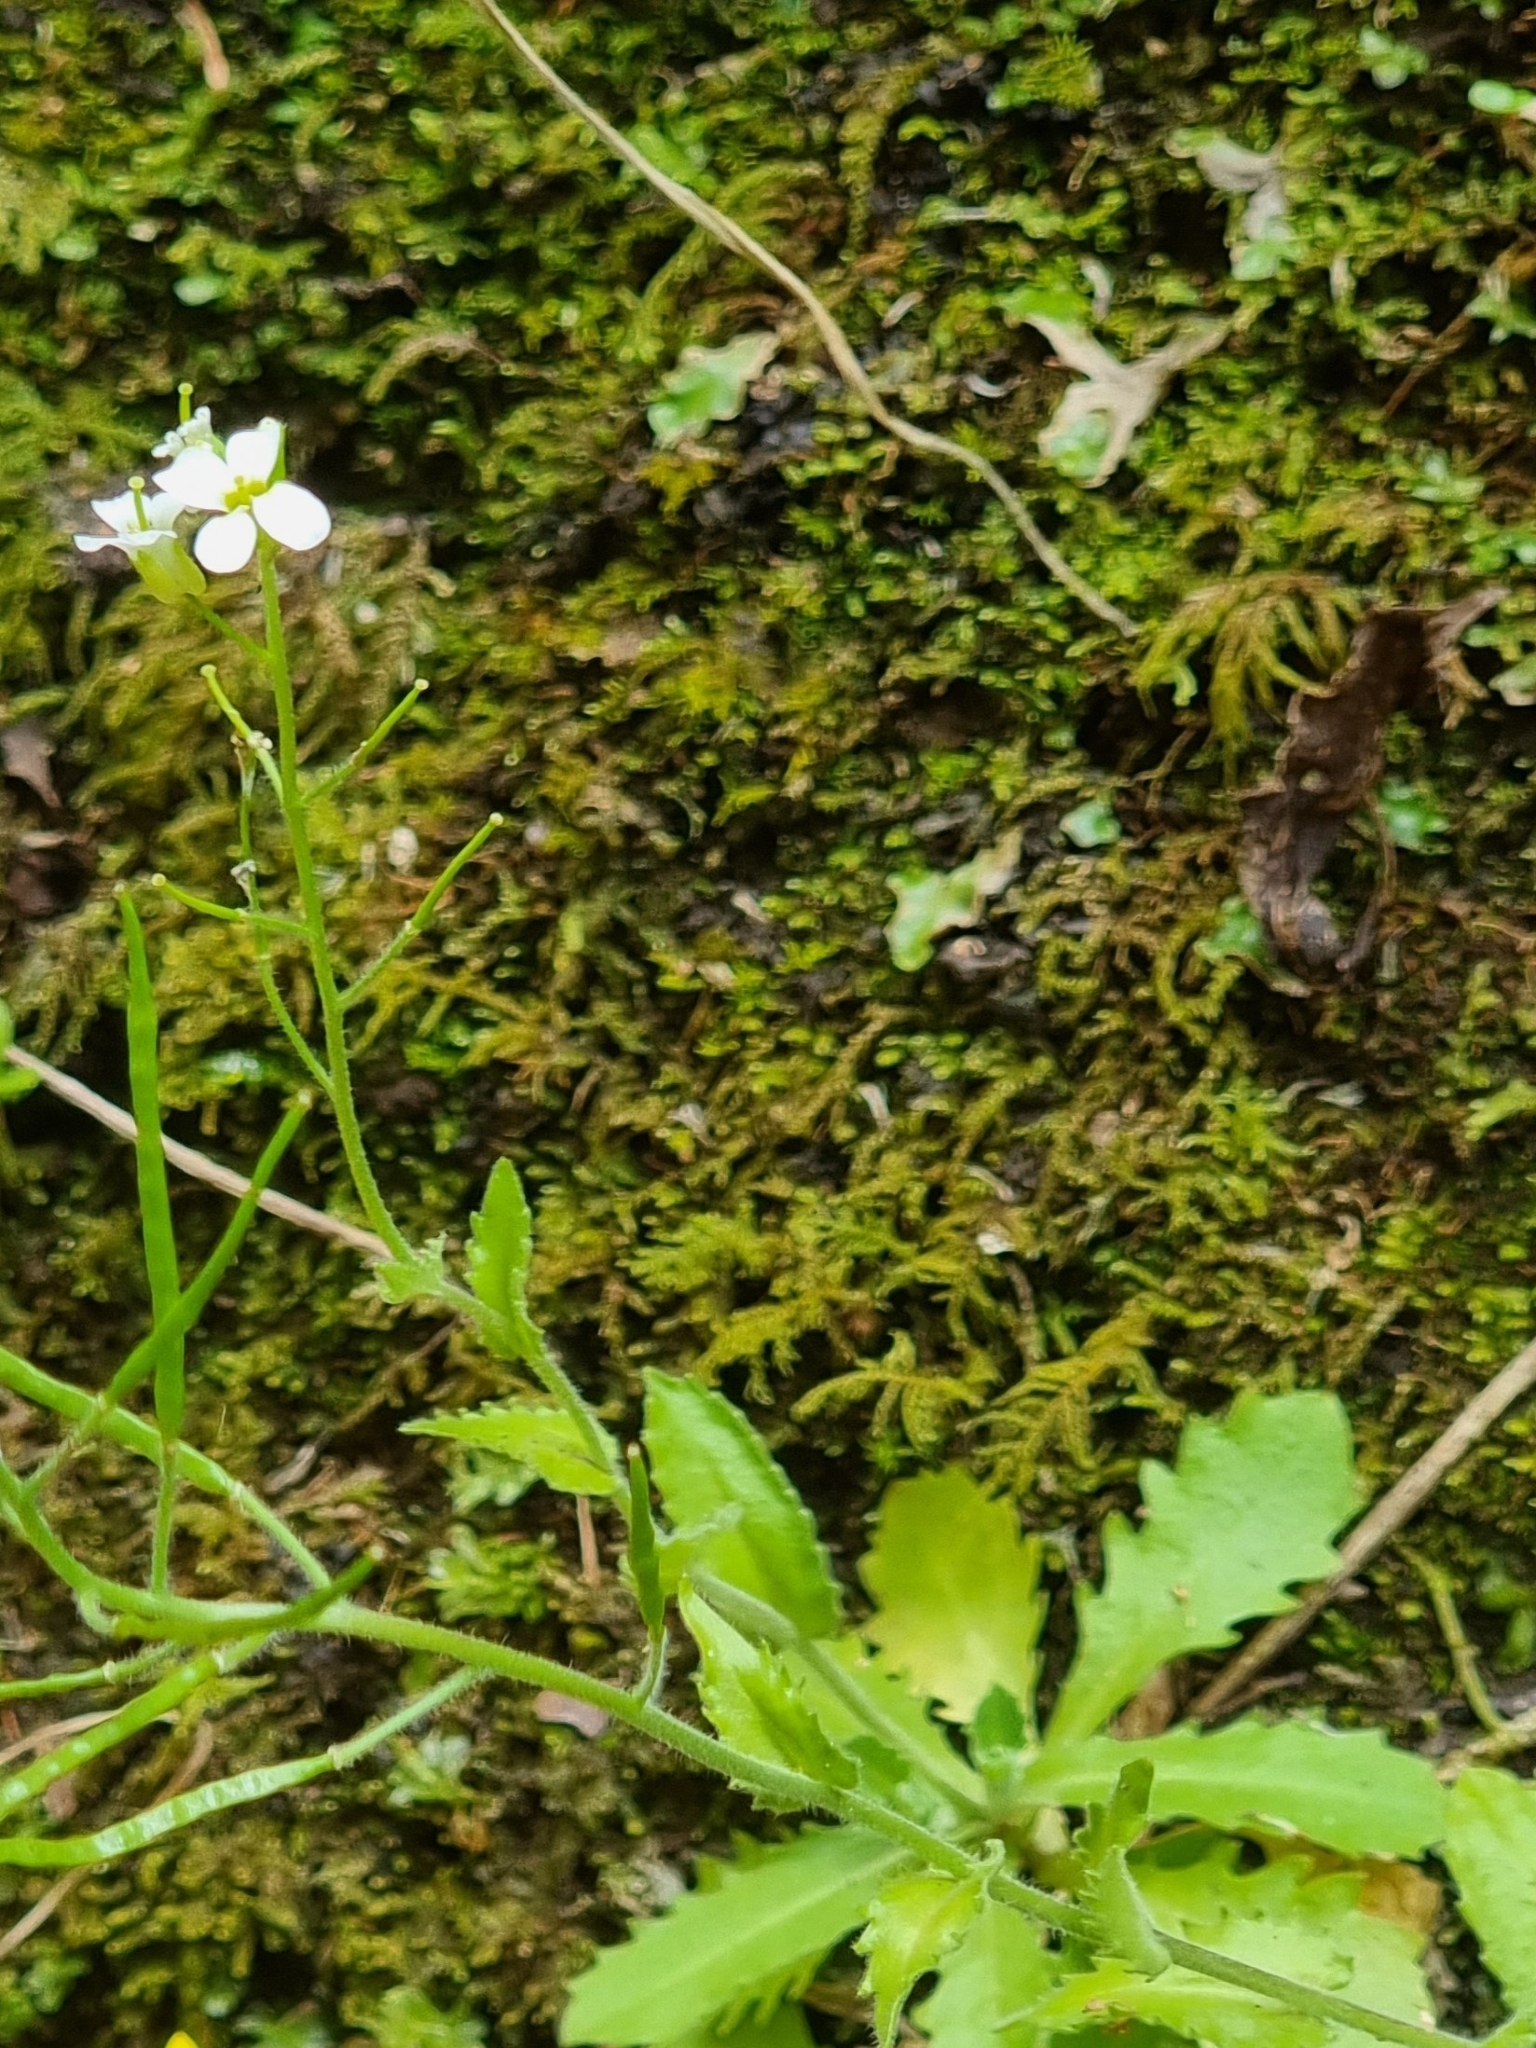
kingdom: Plantae
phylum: Tracheophyta
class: Magnoliopsida
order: Brassicales
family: Brassicaceae
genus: Arabis
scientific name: Arabis caucasica
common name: Gray rockcress
